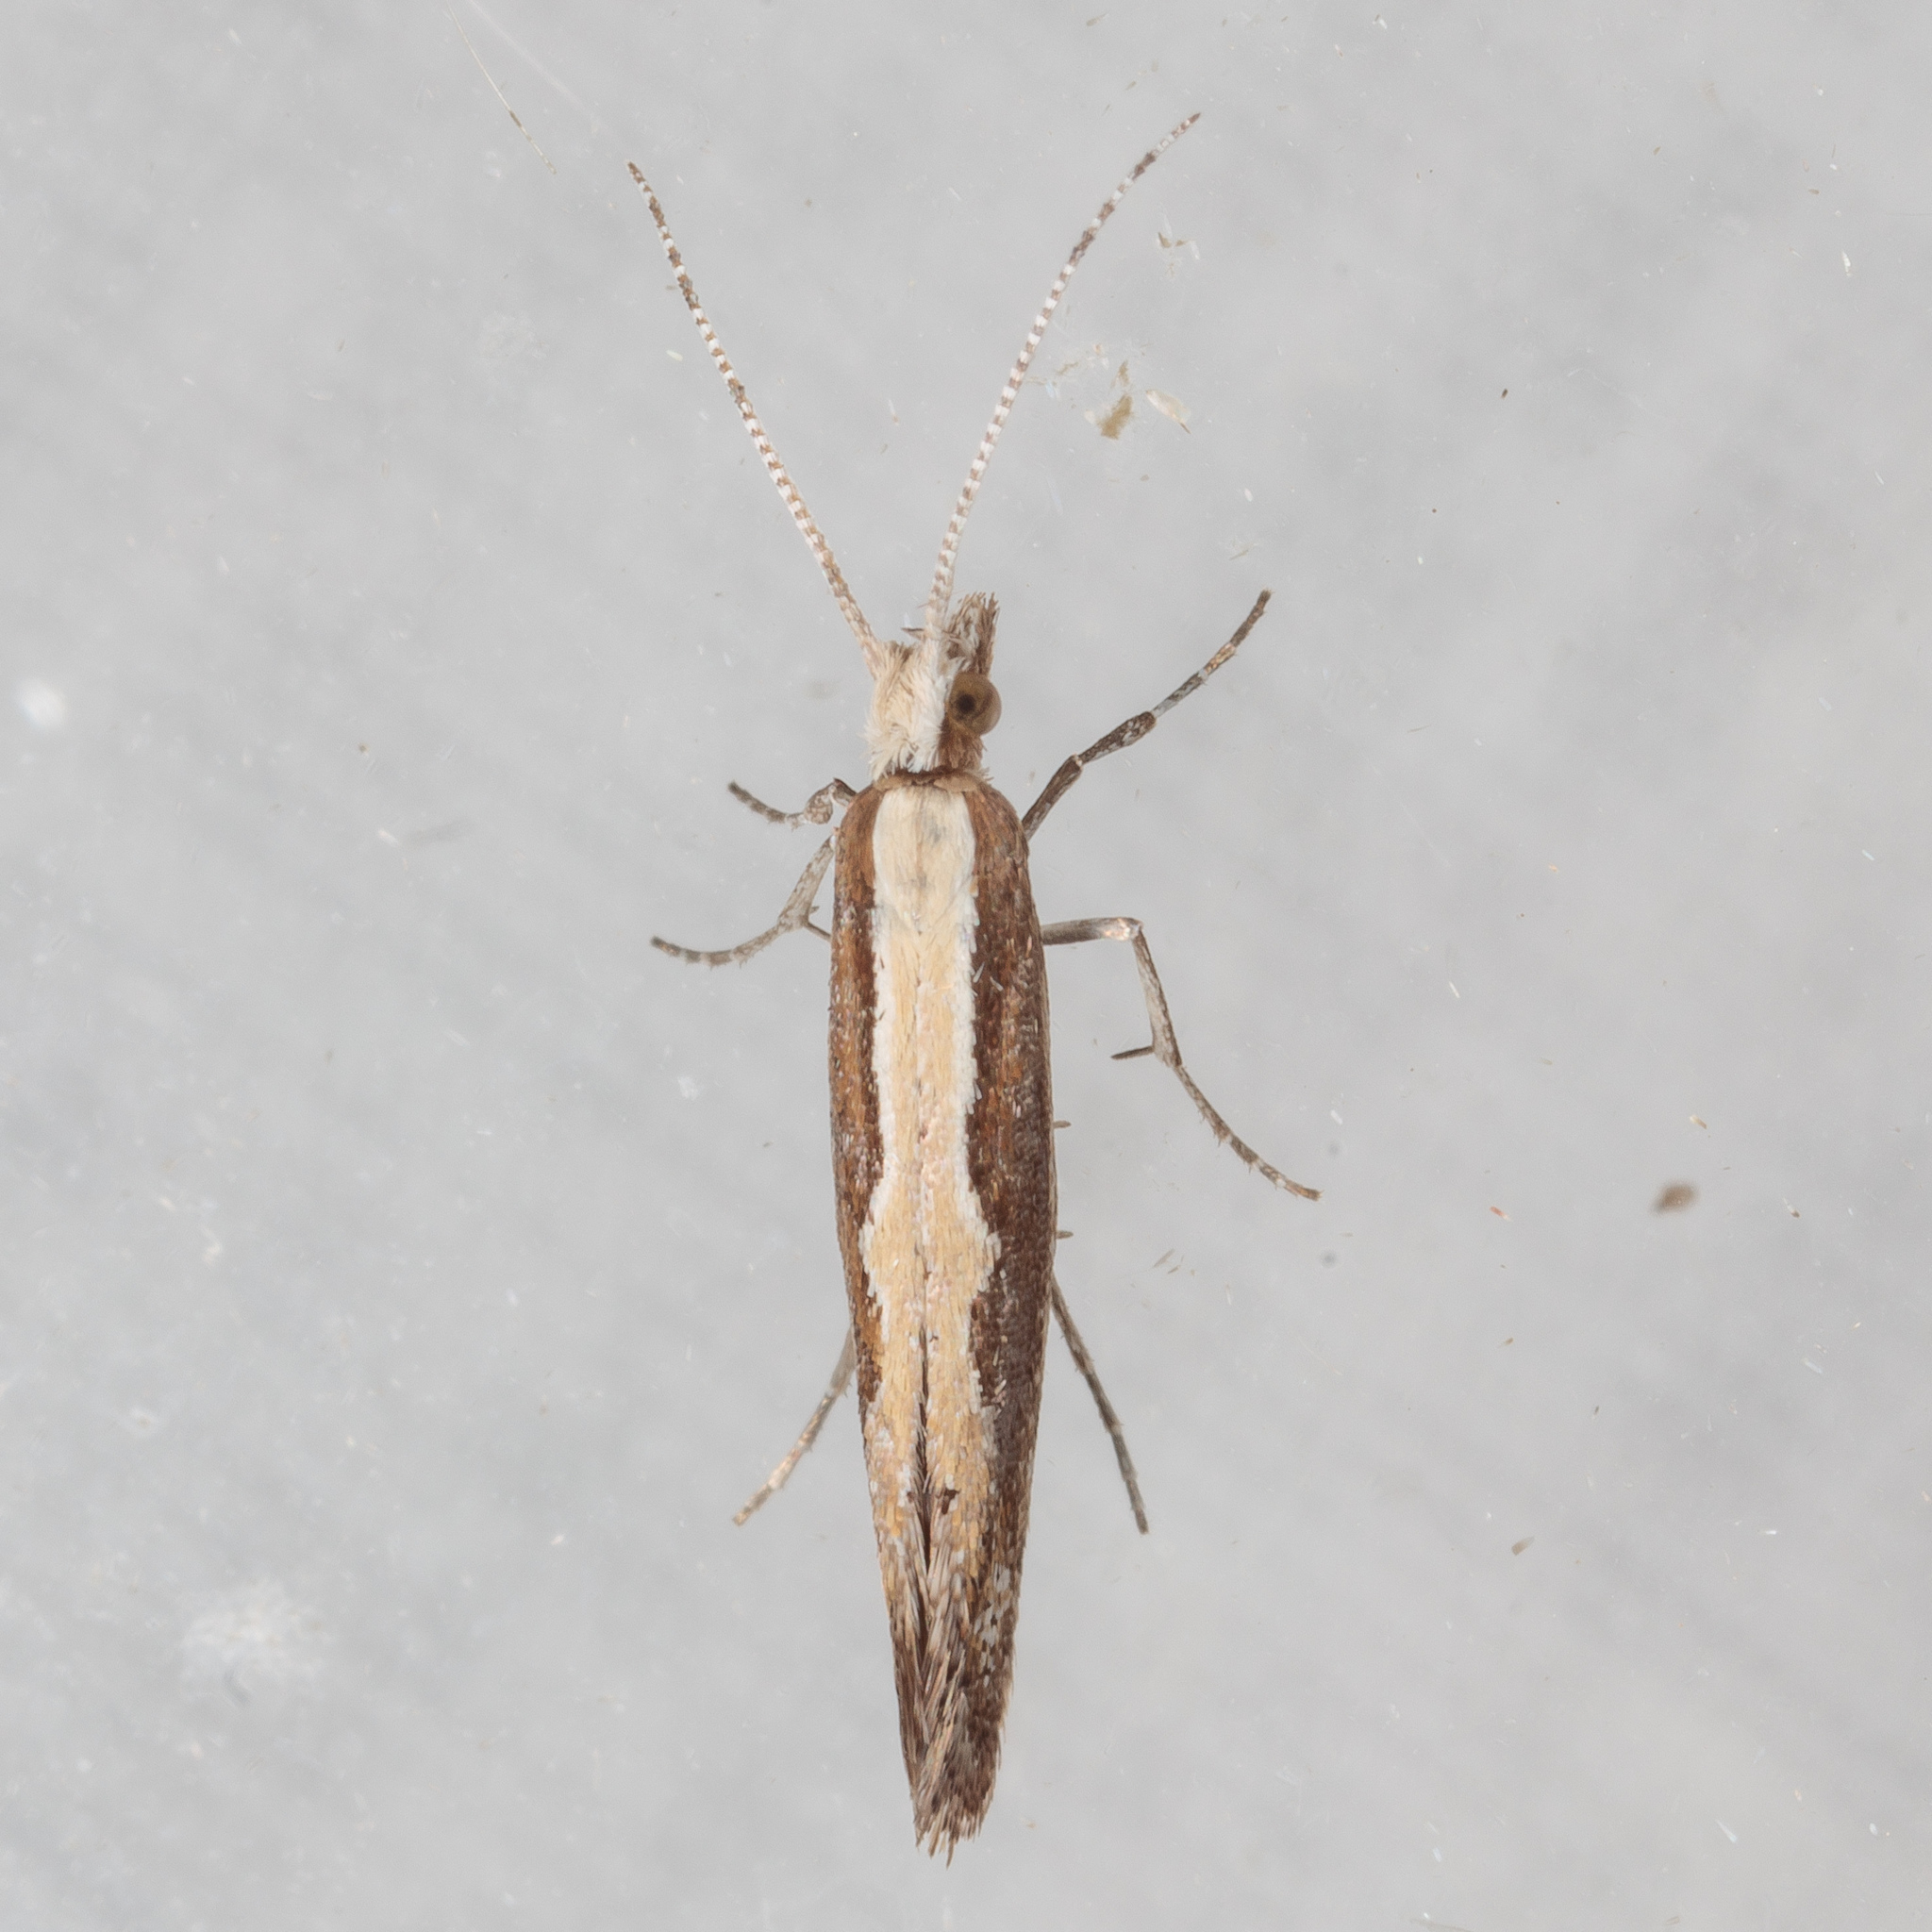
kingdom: Animalia
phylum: Arthropoda
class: Insecta
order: Lepidoptera
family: Plutellidae
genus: Plutella
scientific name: Plutella xylostella
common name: Diamond-back moth
